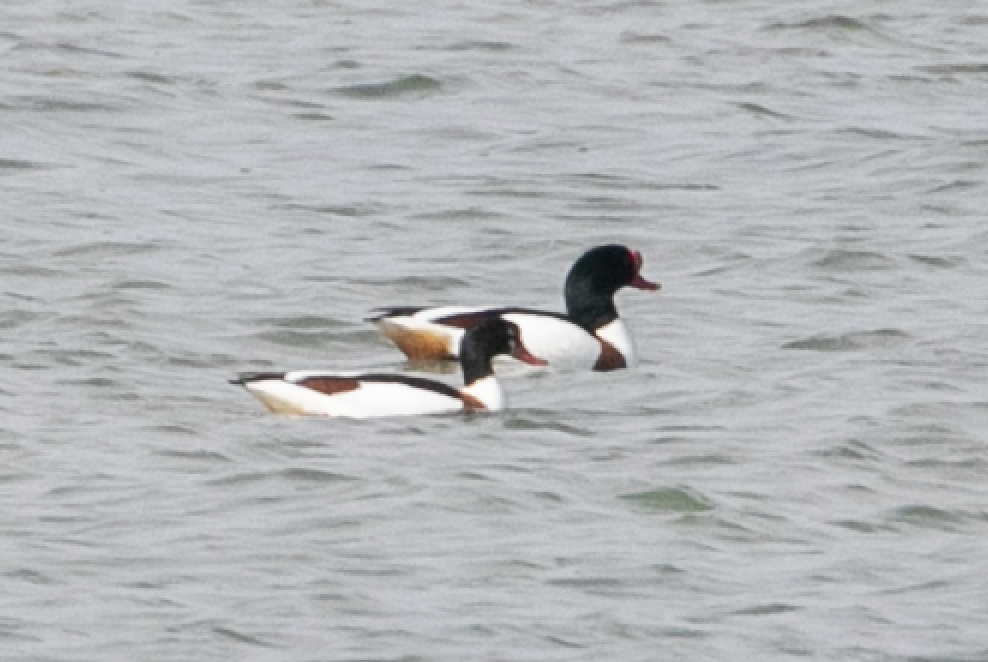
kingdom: Animalia
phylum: Chordata
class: Aves
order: Anseriformes
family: Anatidae
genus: Tadorna
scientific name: Tadorna tadorna
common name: Common shelduck
